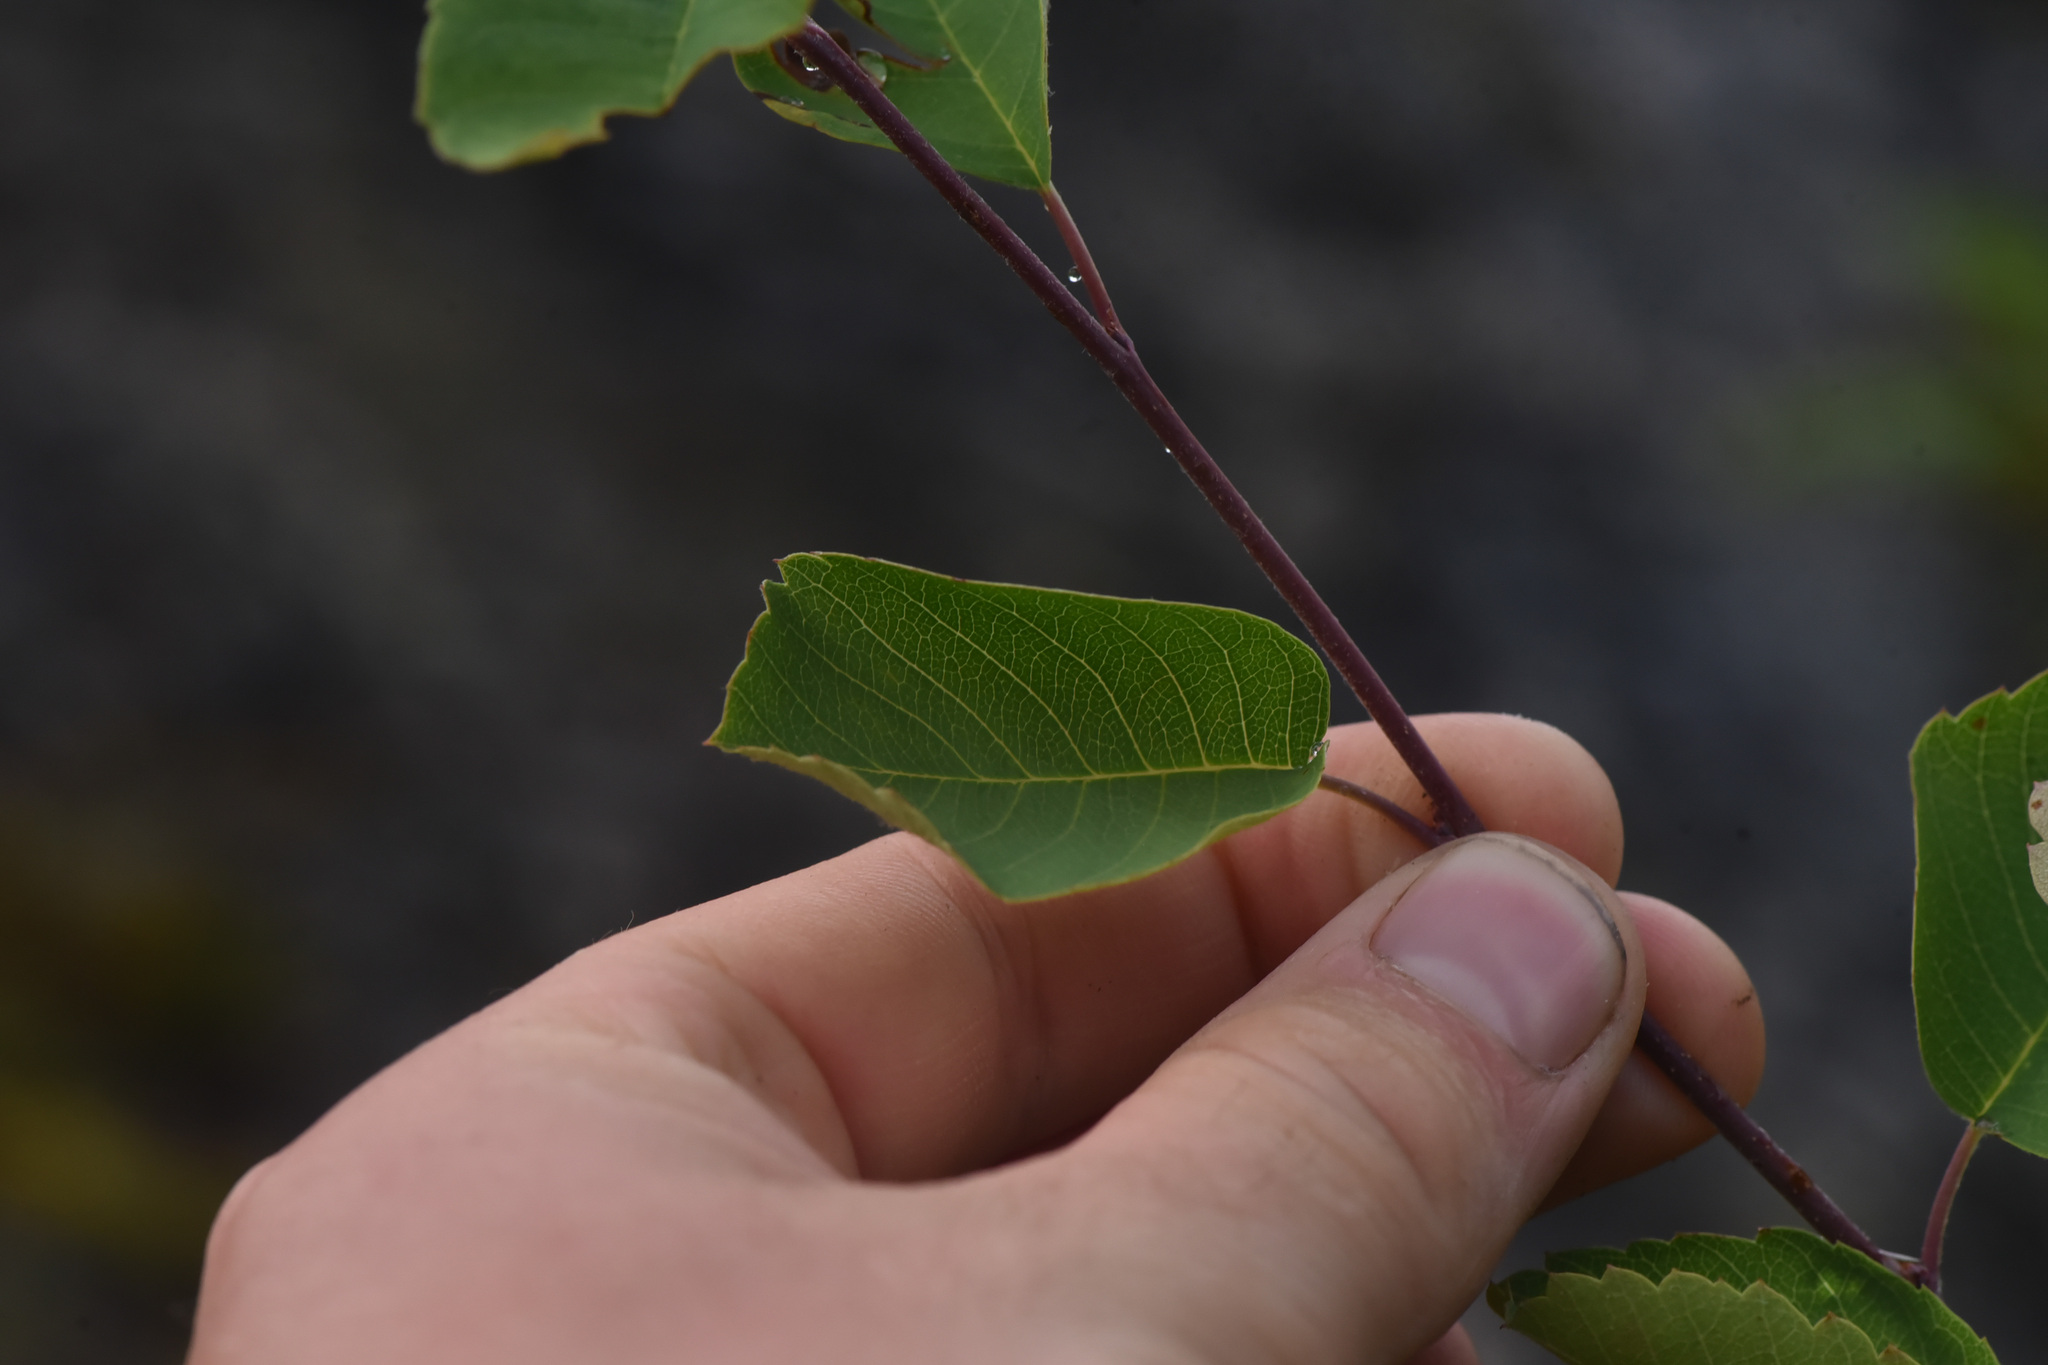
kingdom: Plantae
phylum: Tracheophyta
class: Magnoliopsida
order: Rosales
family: Rosaceae
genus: Amelanchier
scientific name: Amelanchier alnifolia
